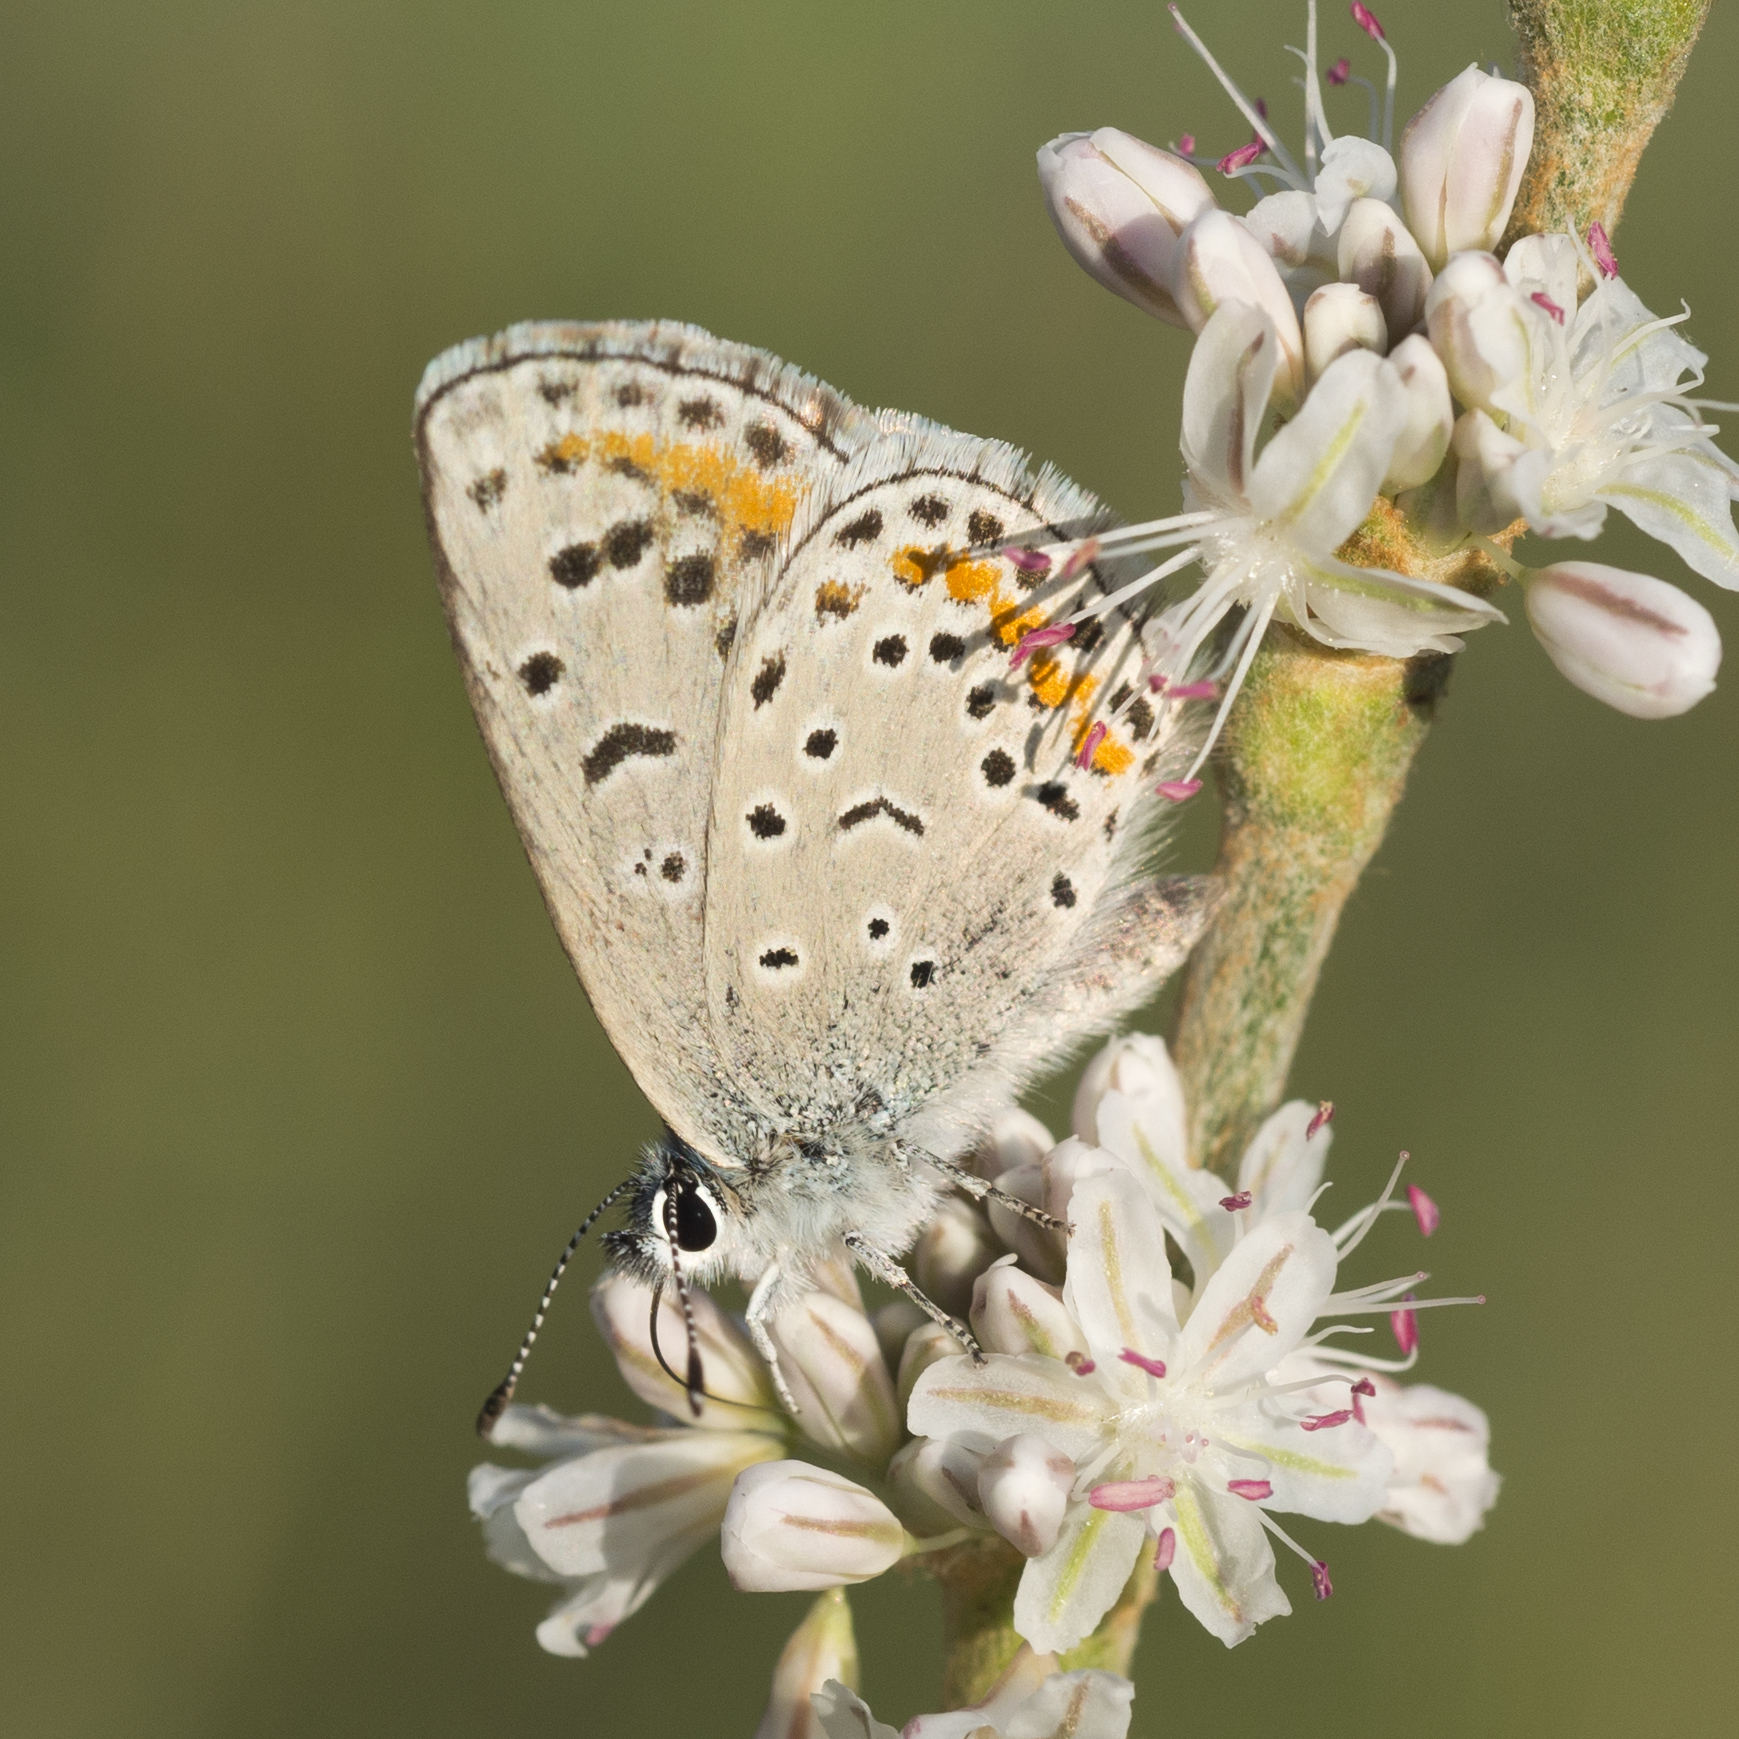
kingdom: Animalia
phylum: Arthropoda
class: Insecta
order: Lepidoptera
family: Lycaenidae
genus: Euphilotes
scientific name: Euphilotes spaldingi
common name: Spalding's blue
